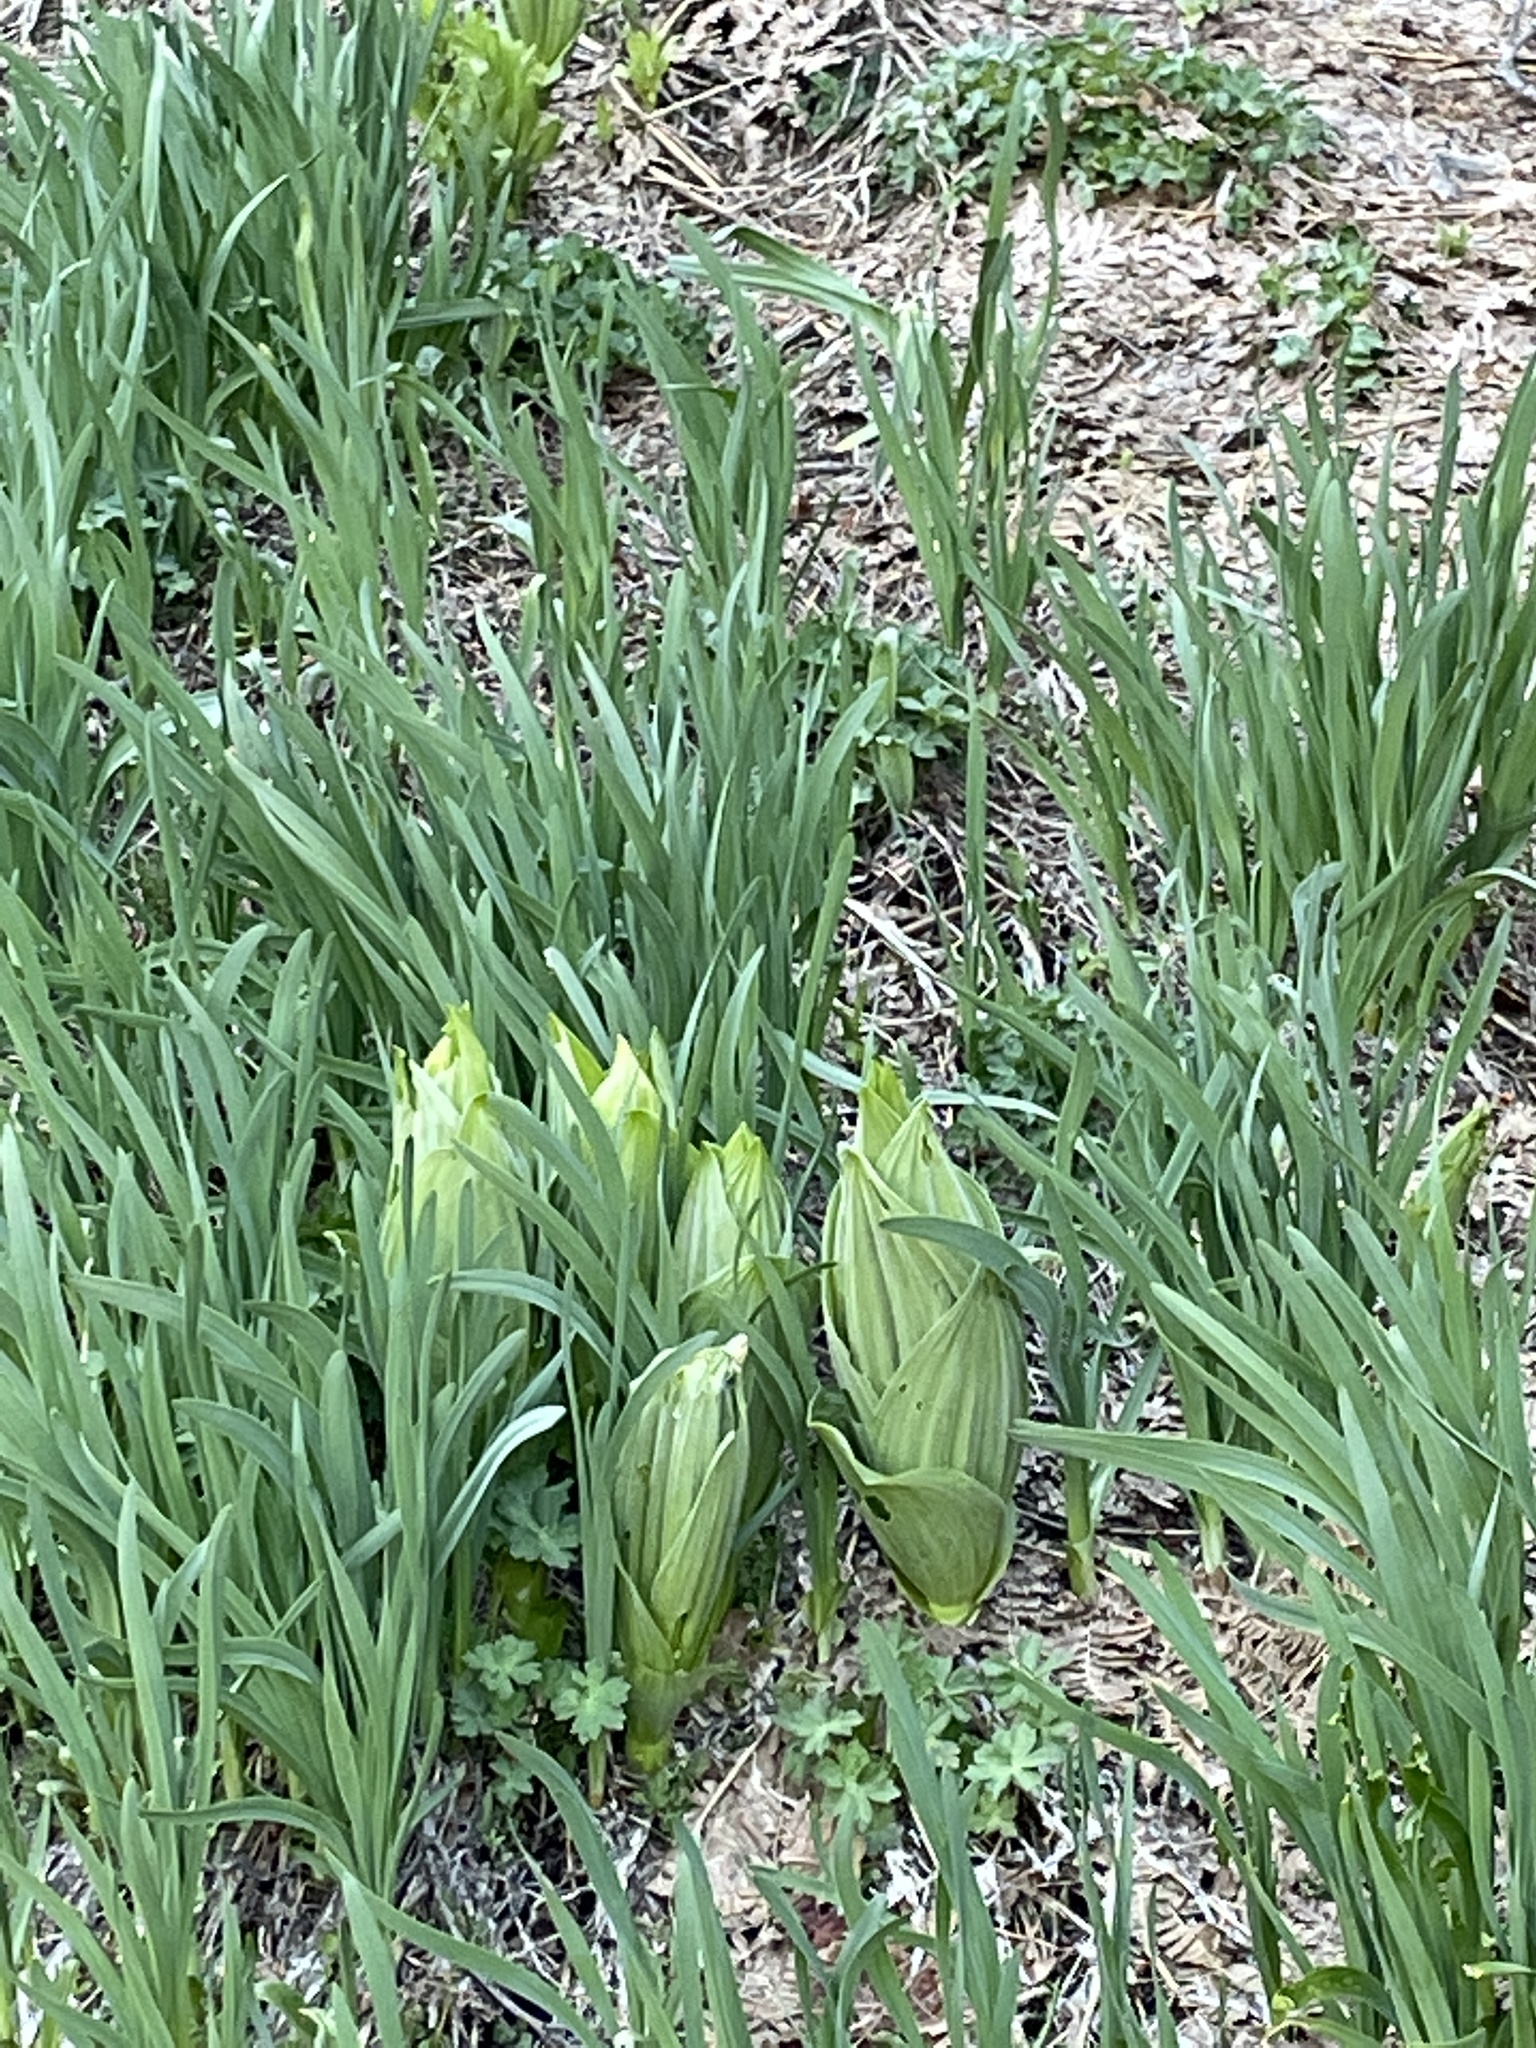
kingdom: Plantae
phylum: Tracheophyta
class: Liliopsida
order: Liliales
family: Melanthiaceae
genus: Veratrum
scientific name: Veratrum californicum
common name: California veratrum
